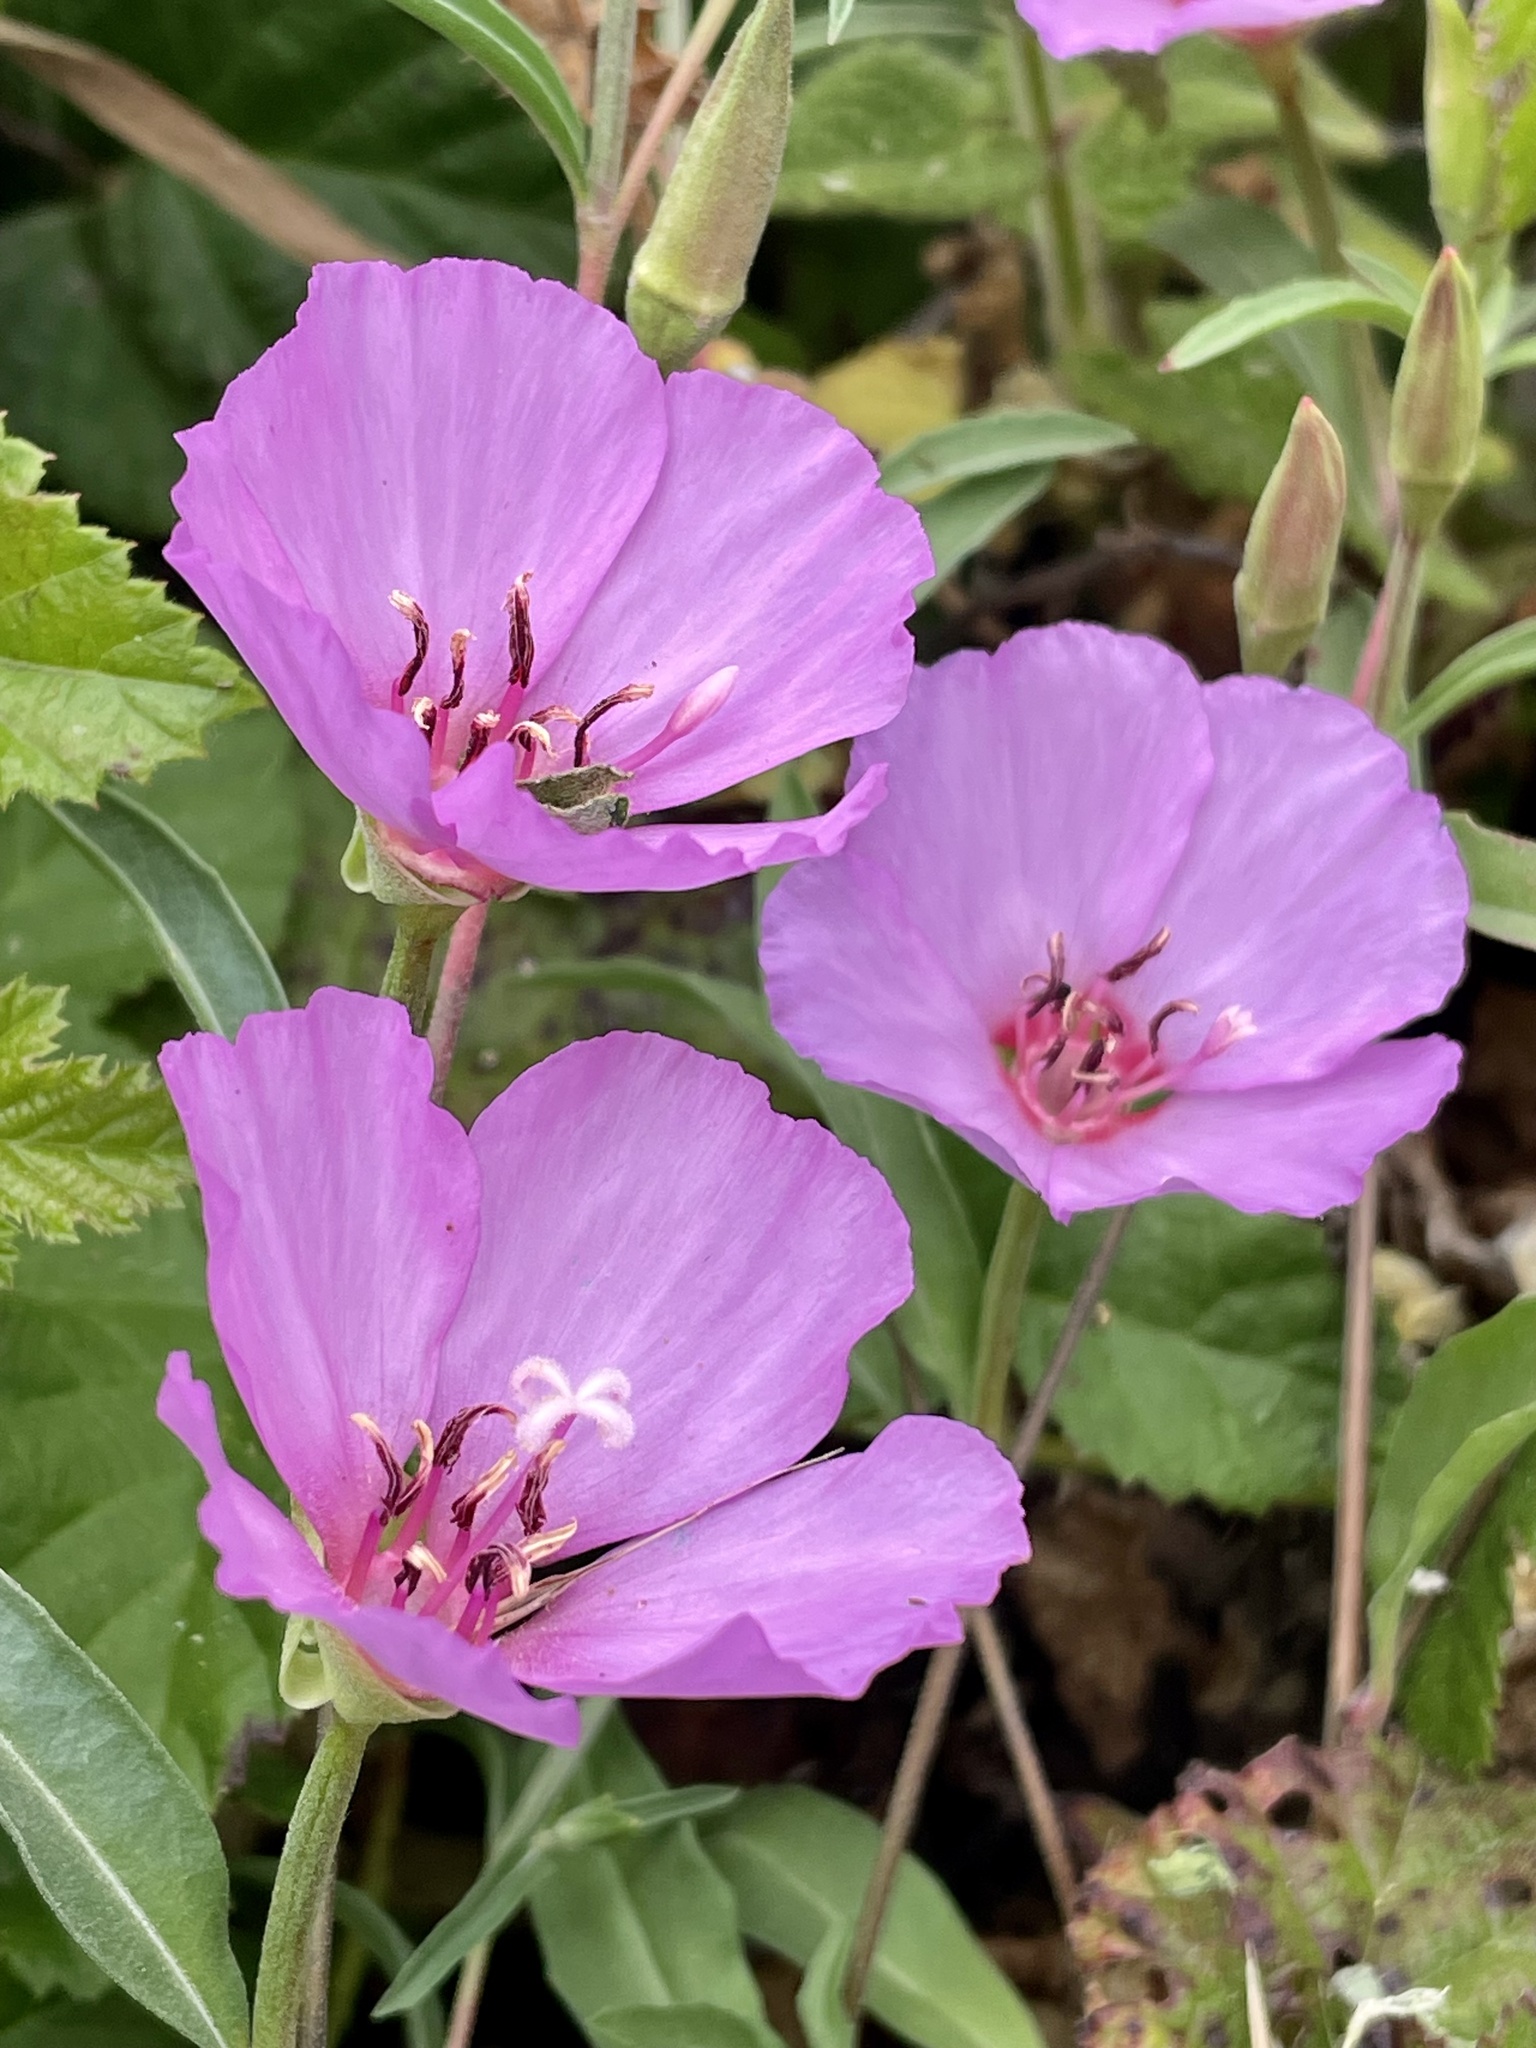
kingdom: Plantae
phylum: Tracheophyta
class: Magnoliopsida
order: Myrtales
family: Onagraceae
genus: Clarkia
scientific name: Clarkia rubicunda
